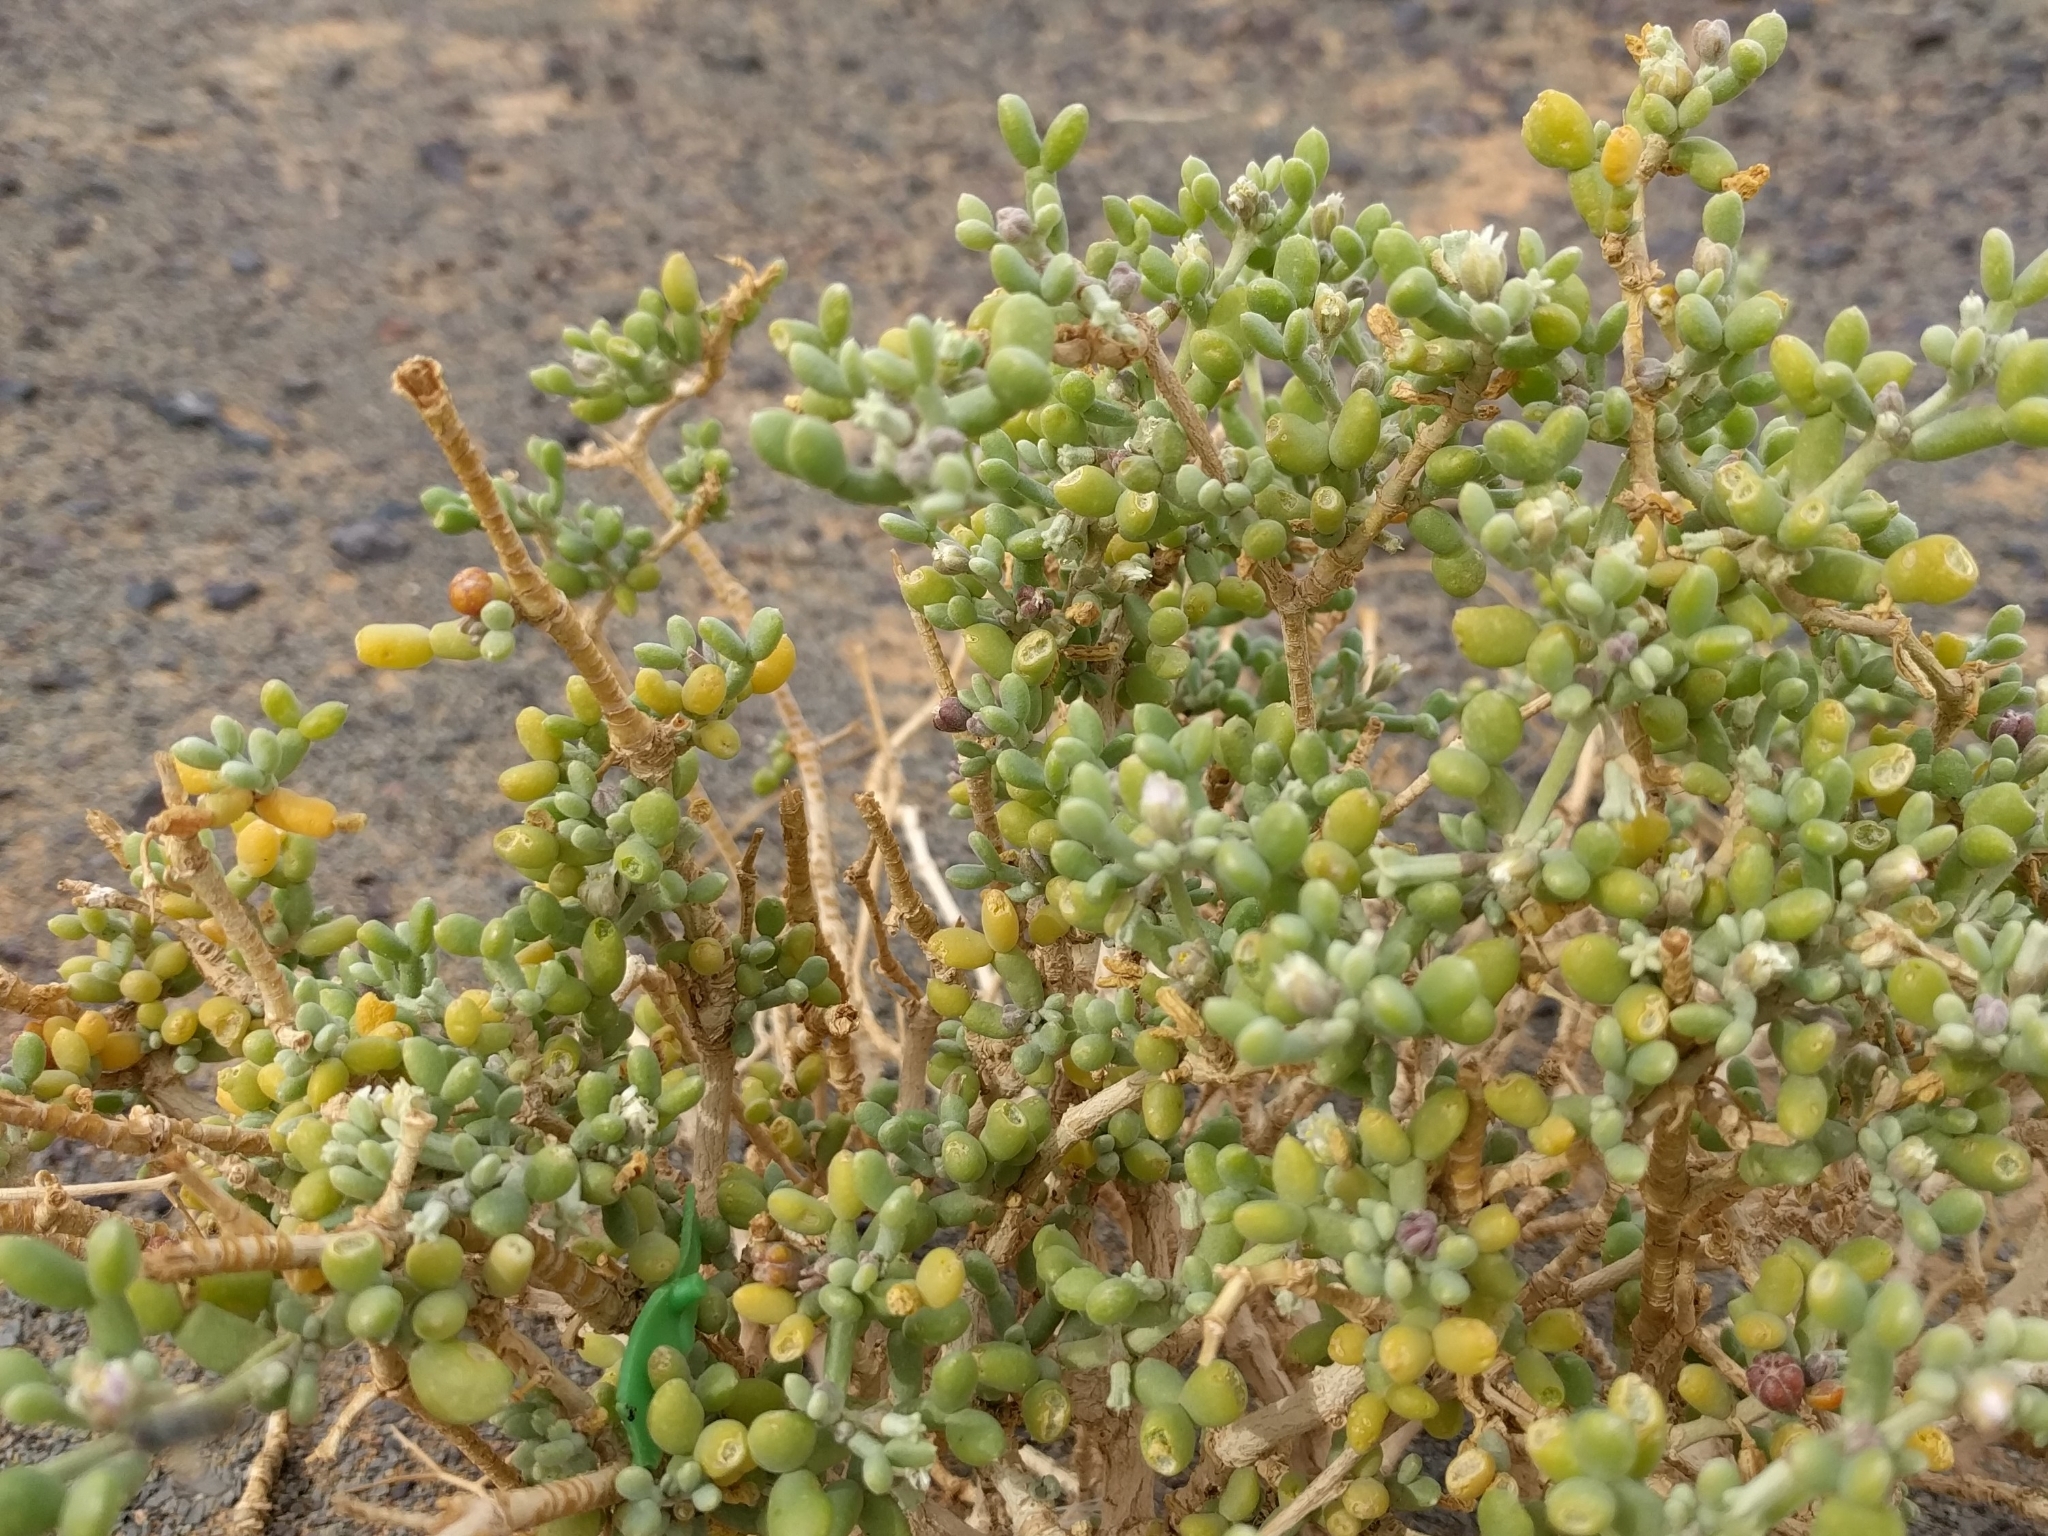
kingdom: Plantae
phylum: Tracheophyta
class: Magnoliopsida
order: Zygophyllales
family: Zygophyllaceae
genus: Tetraena
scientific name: Tetraena gaetula
